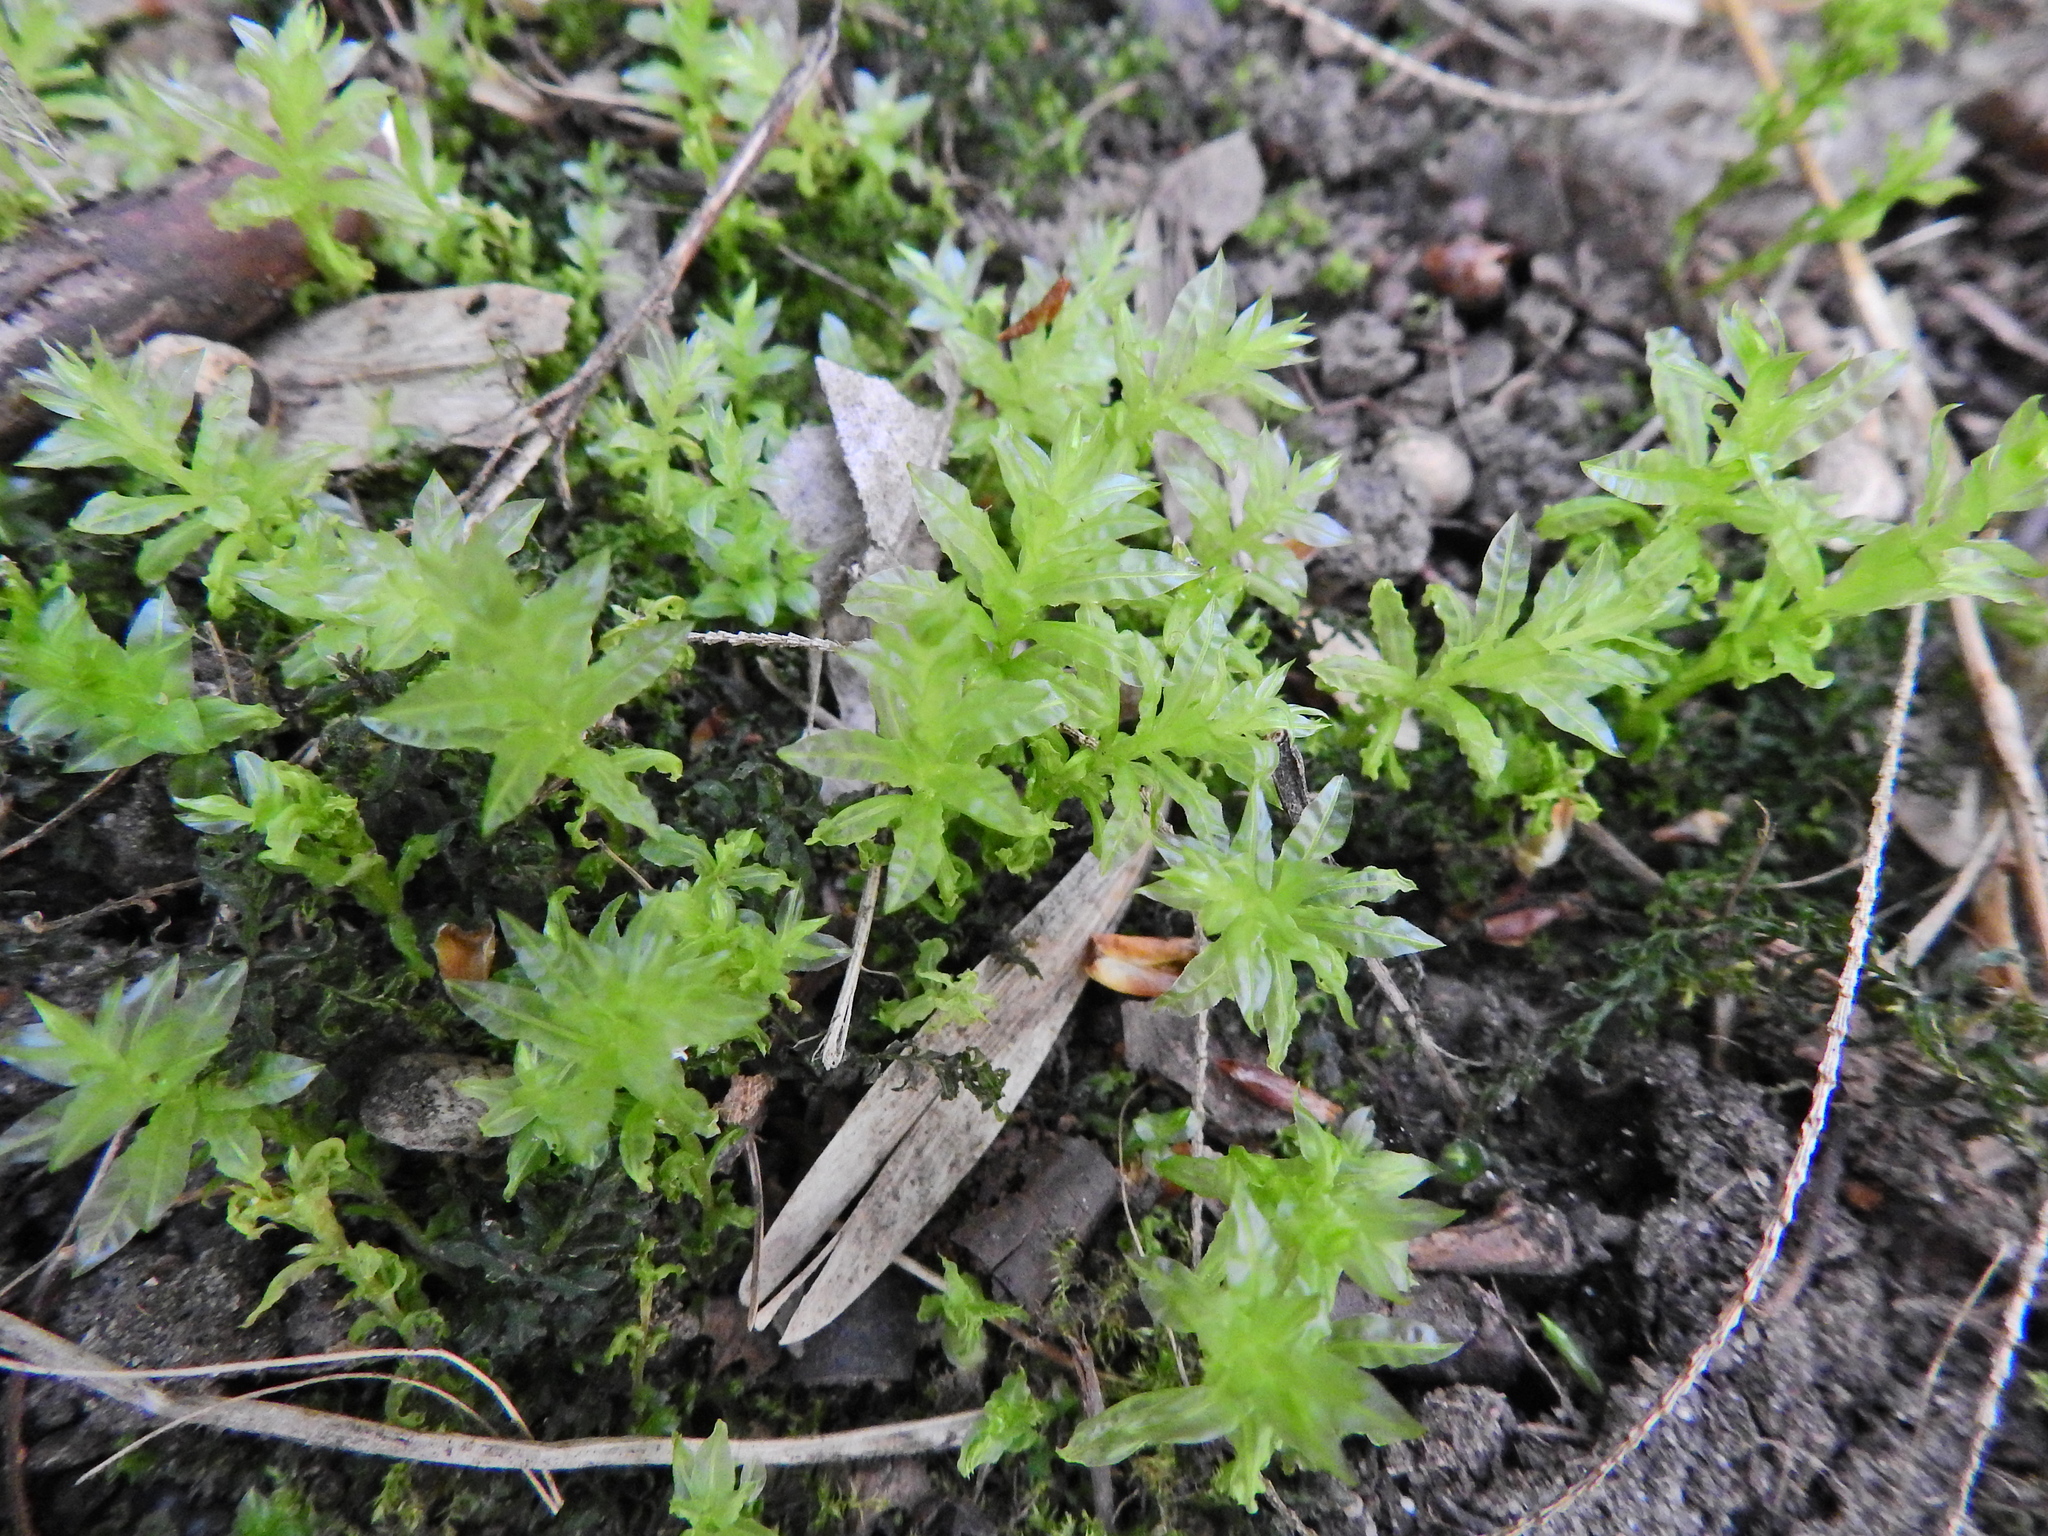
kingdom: Plantae
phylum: Bryophyta
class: Bryopsida
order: Bryales
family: Mniaceae
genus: Plagiomnium
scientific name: Plagiomnium undulatum
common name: Hart's-tongue thyme-moss
